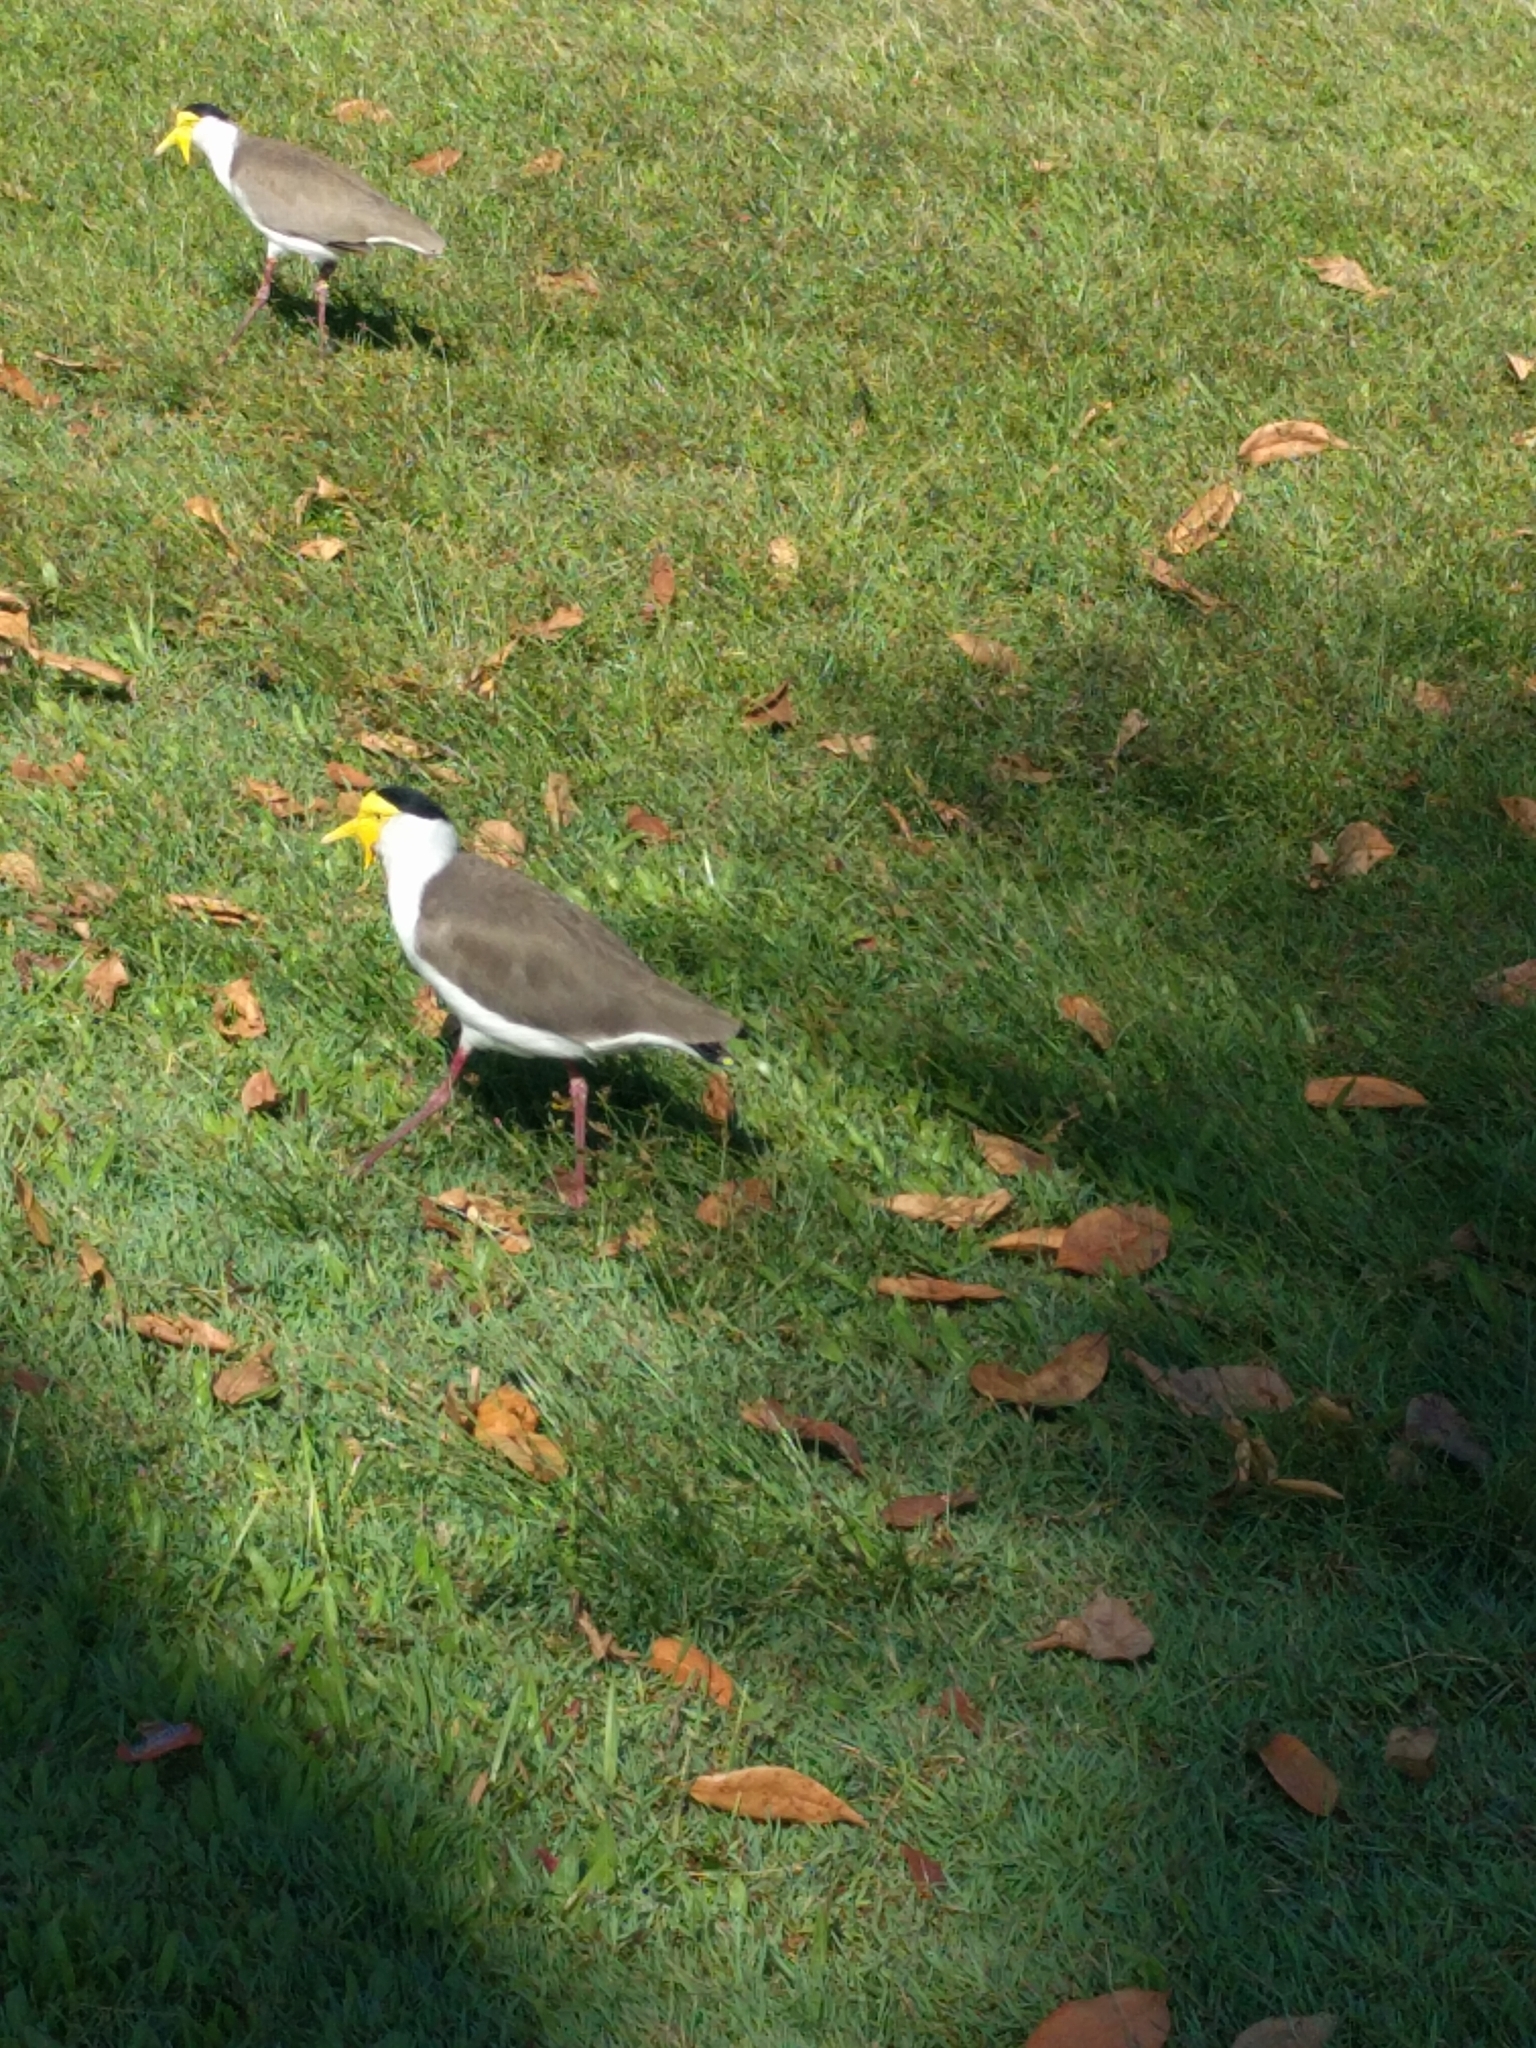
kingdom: Animalia
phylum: Chordata
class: Aves
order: Charadriiformes
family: Charadriidae
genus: Vanellus
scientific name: Vanellus miles
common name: Masked lapwing
